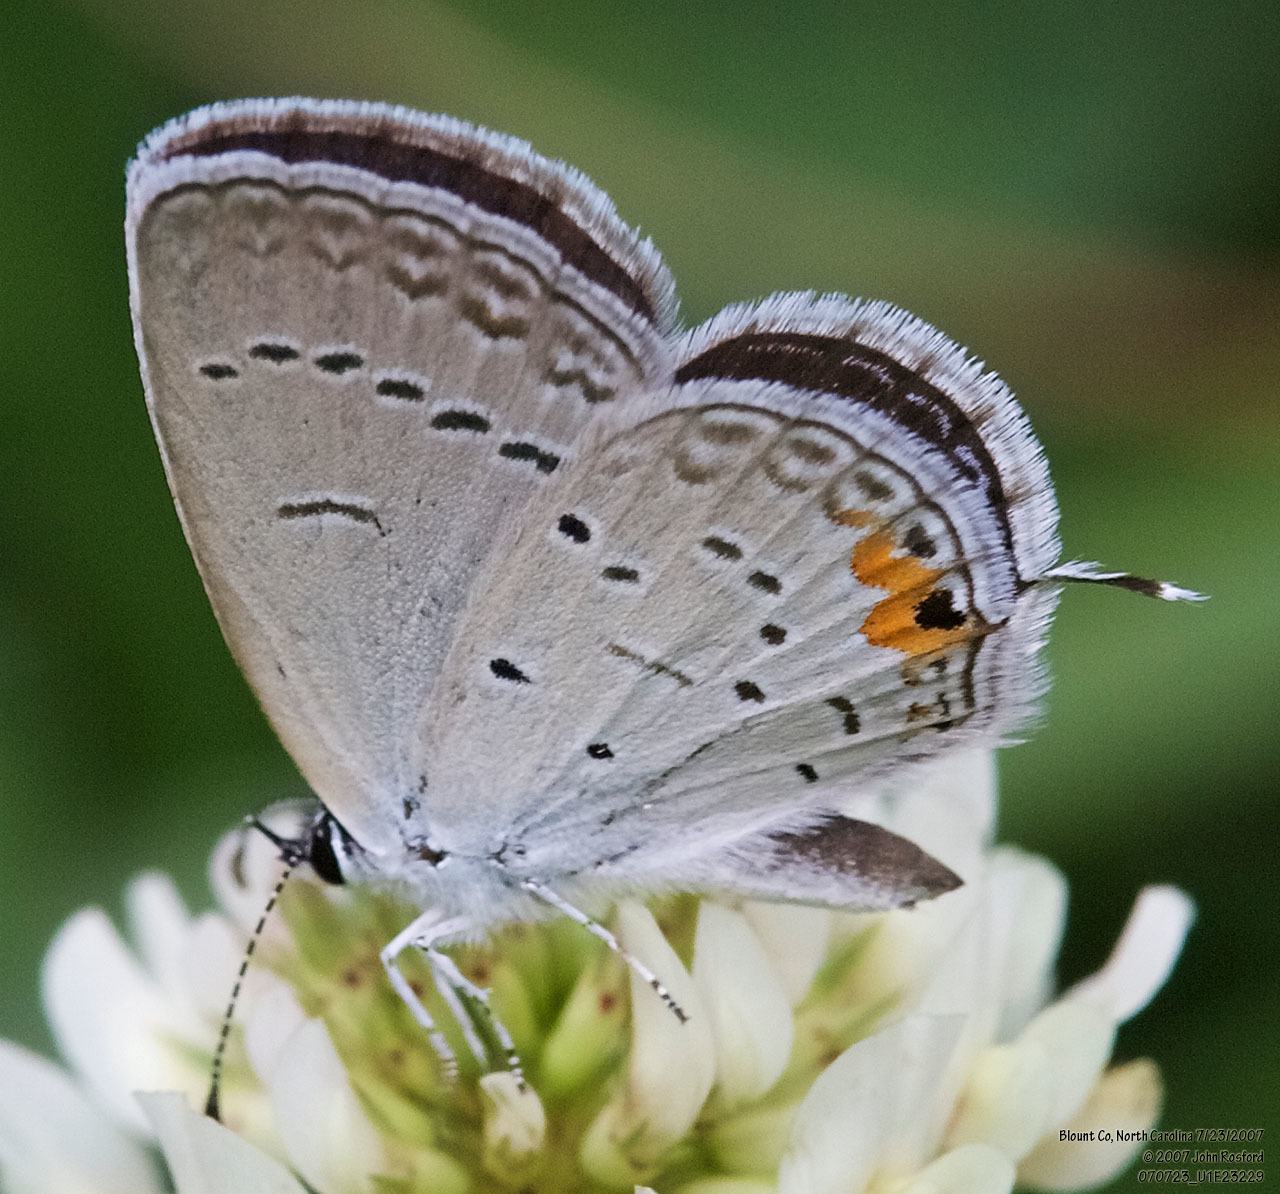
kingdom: Animalia
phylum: Arthropoda
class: Insecta
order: Lepidoptera
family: Lycaenidae
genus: Elkalyce
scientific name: Elkalyce comyntas
